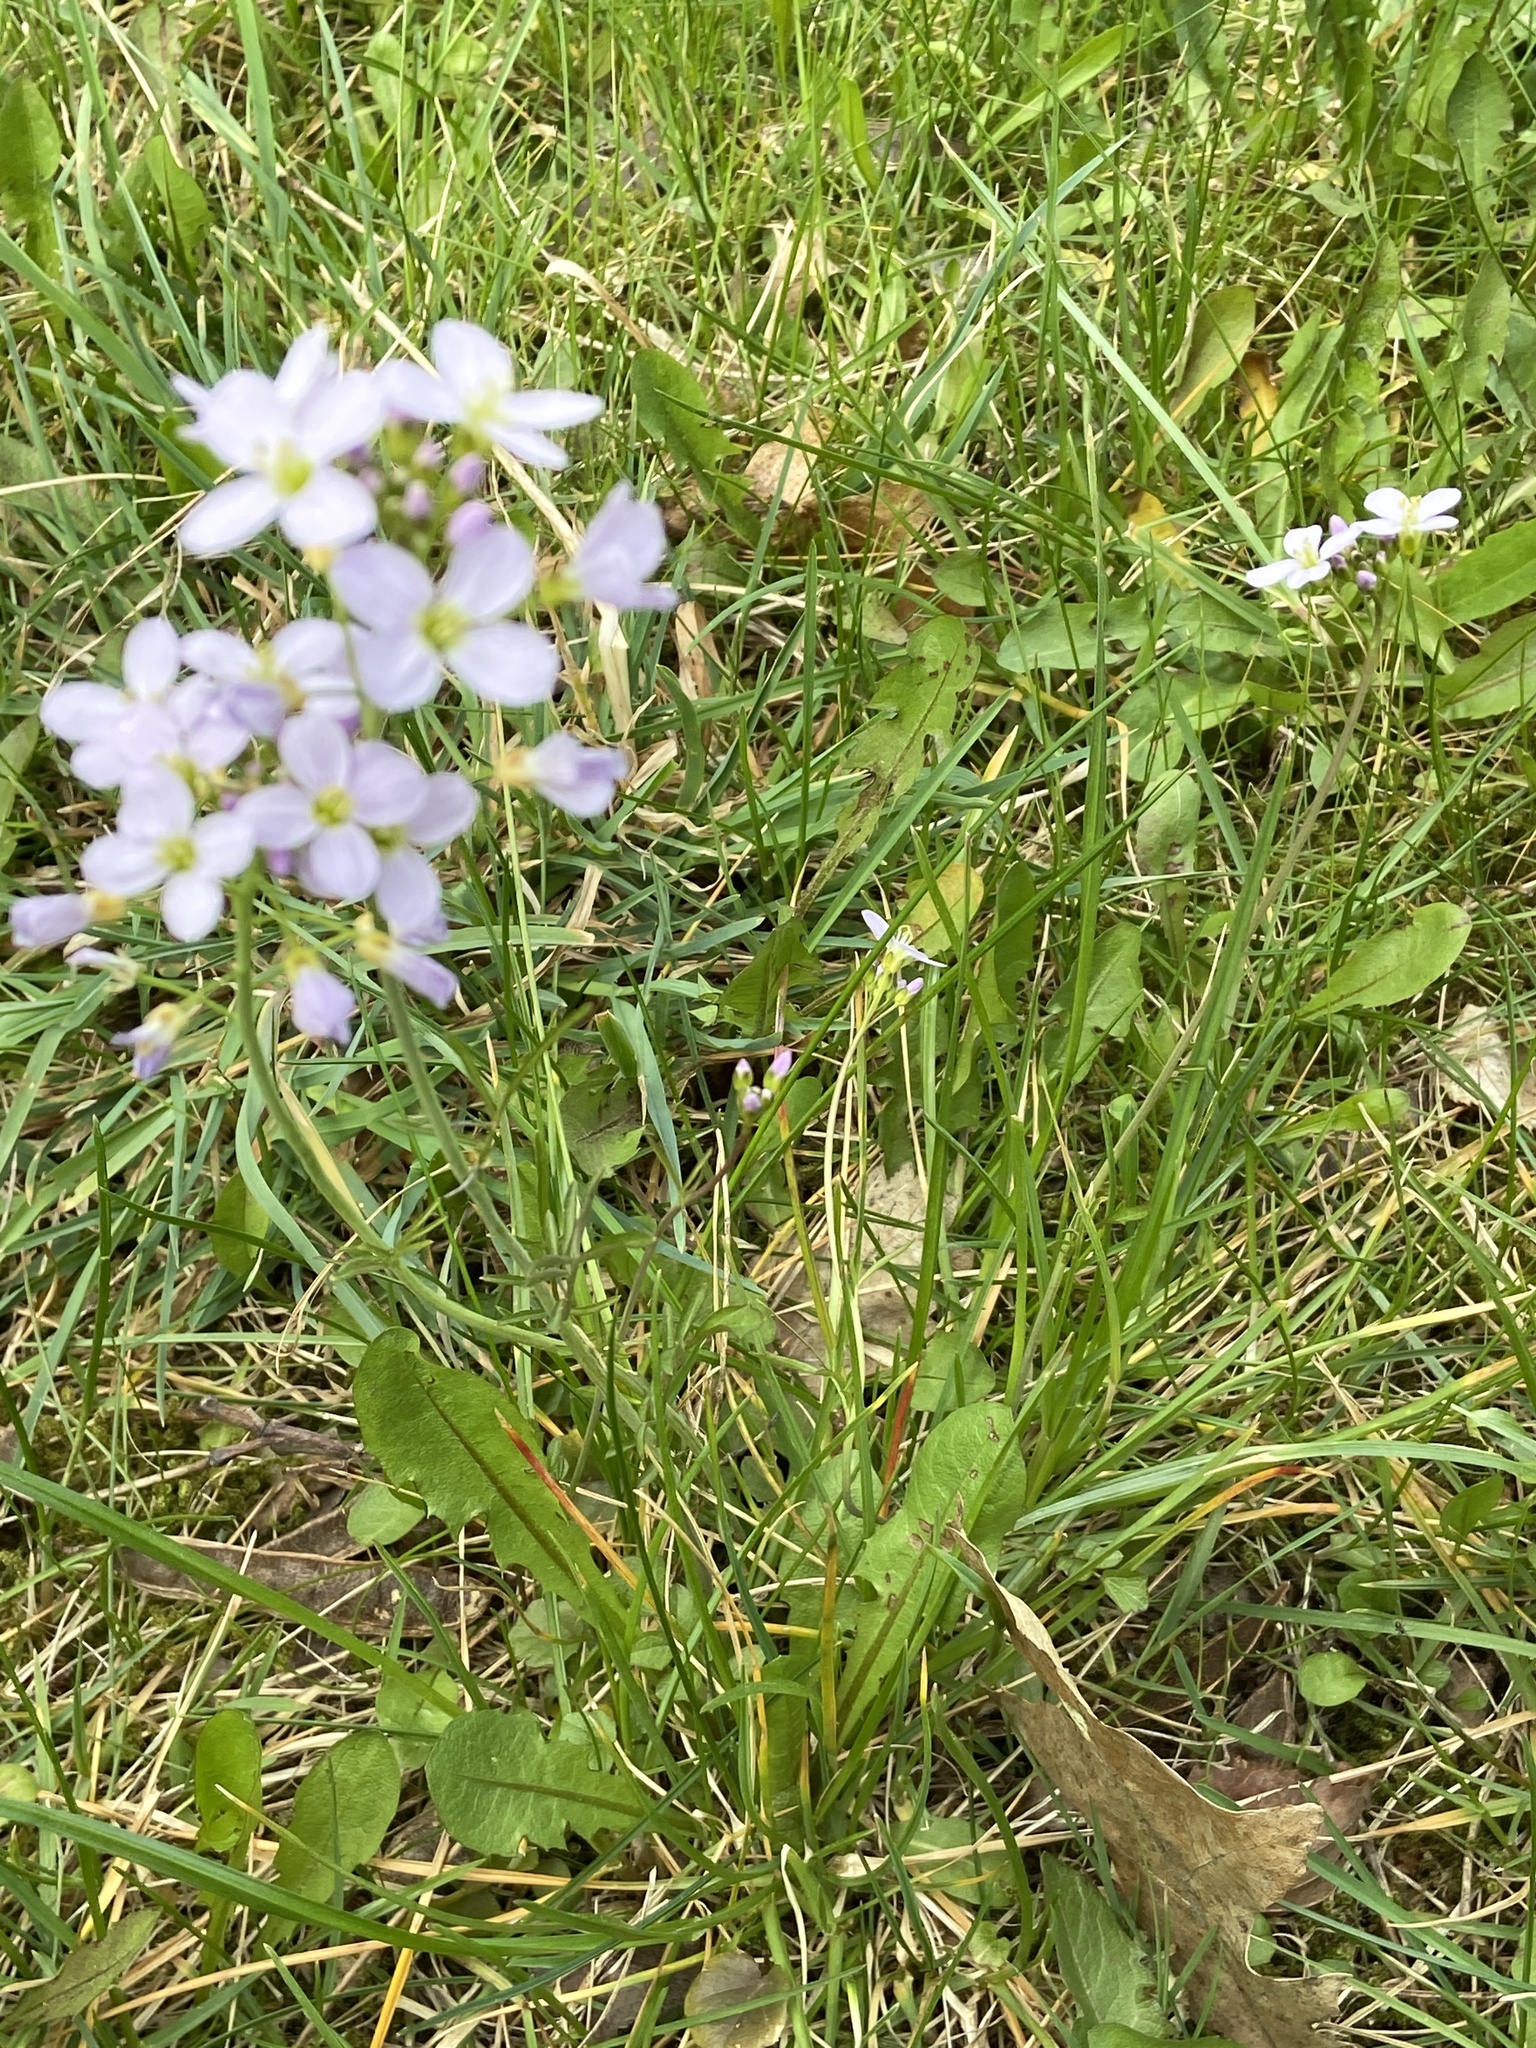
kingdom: Plantae
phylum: Tracheophyta
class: Magnoliopsida
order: Brassicales
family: Brassicaceae
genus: Cardamine
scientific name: Cardamine pratensis
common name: Cuckoo flower
